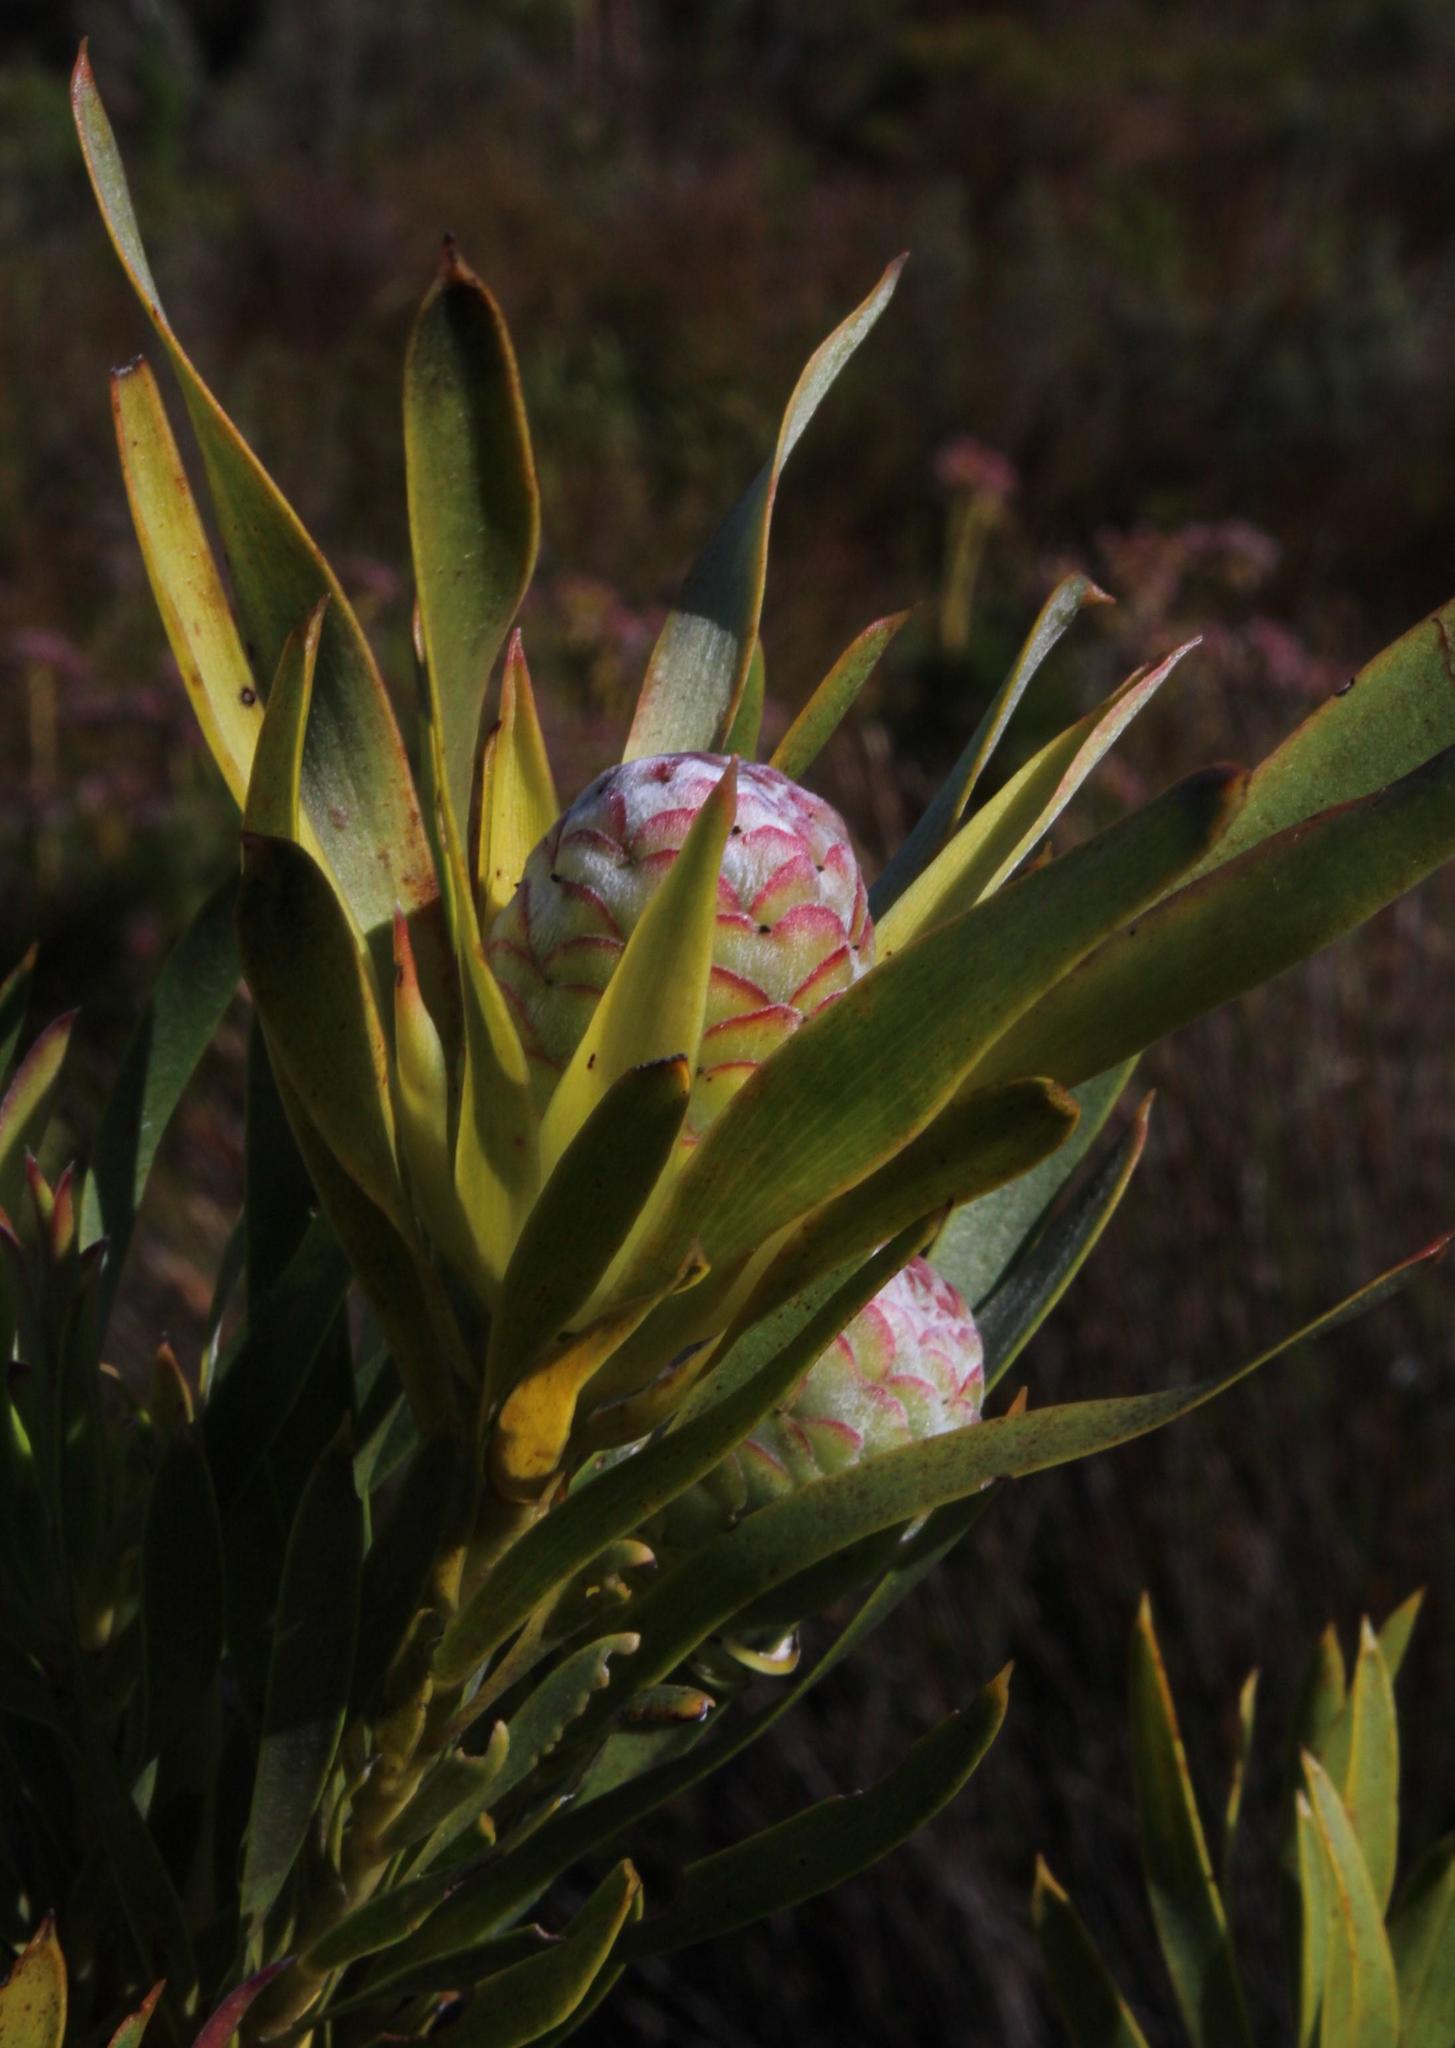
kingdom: Plantae
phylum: Tracheophyta
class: Magnoliopsida
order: Proteales
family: Proteaceae
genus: Leucadendron
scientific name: Leucadendron xanthoconus
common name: Sickle-leaf conebush
